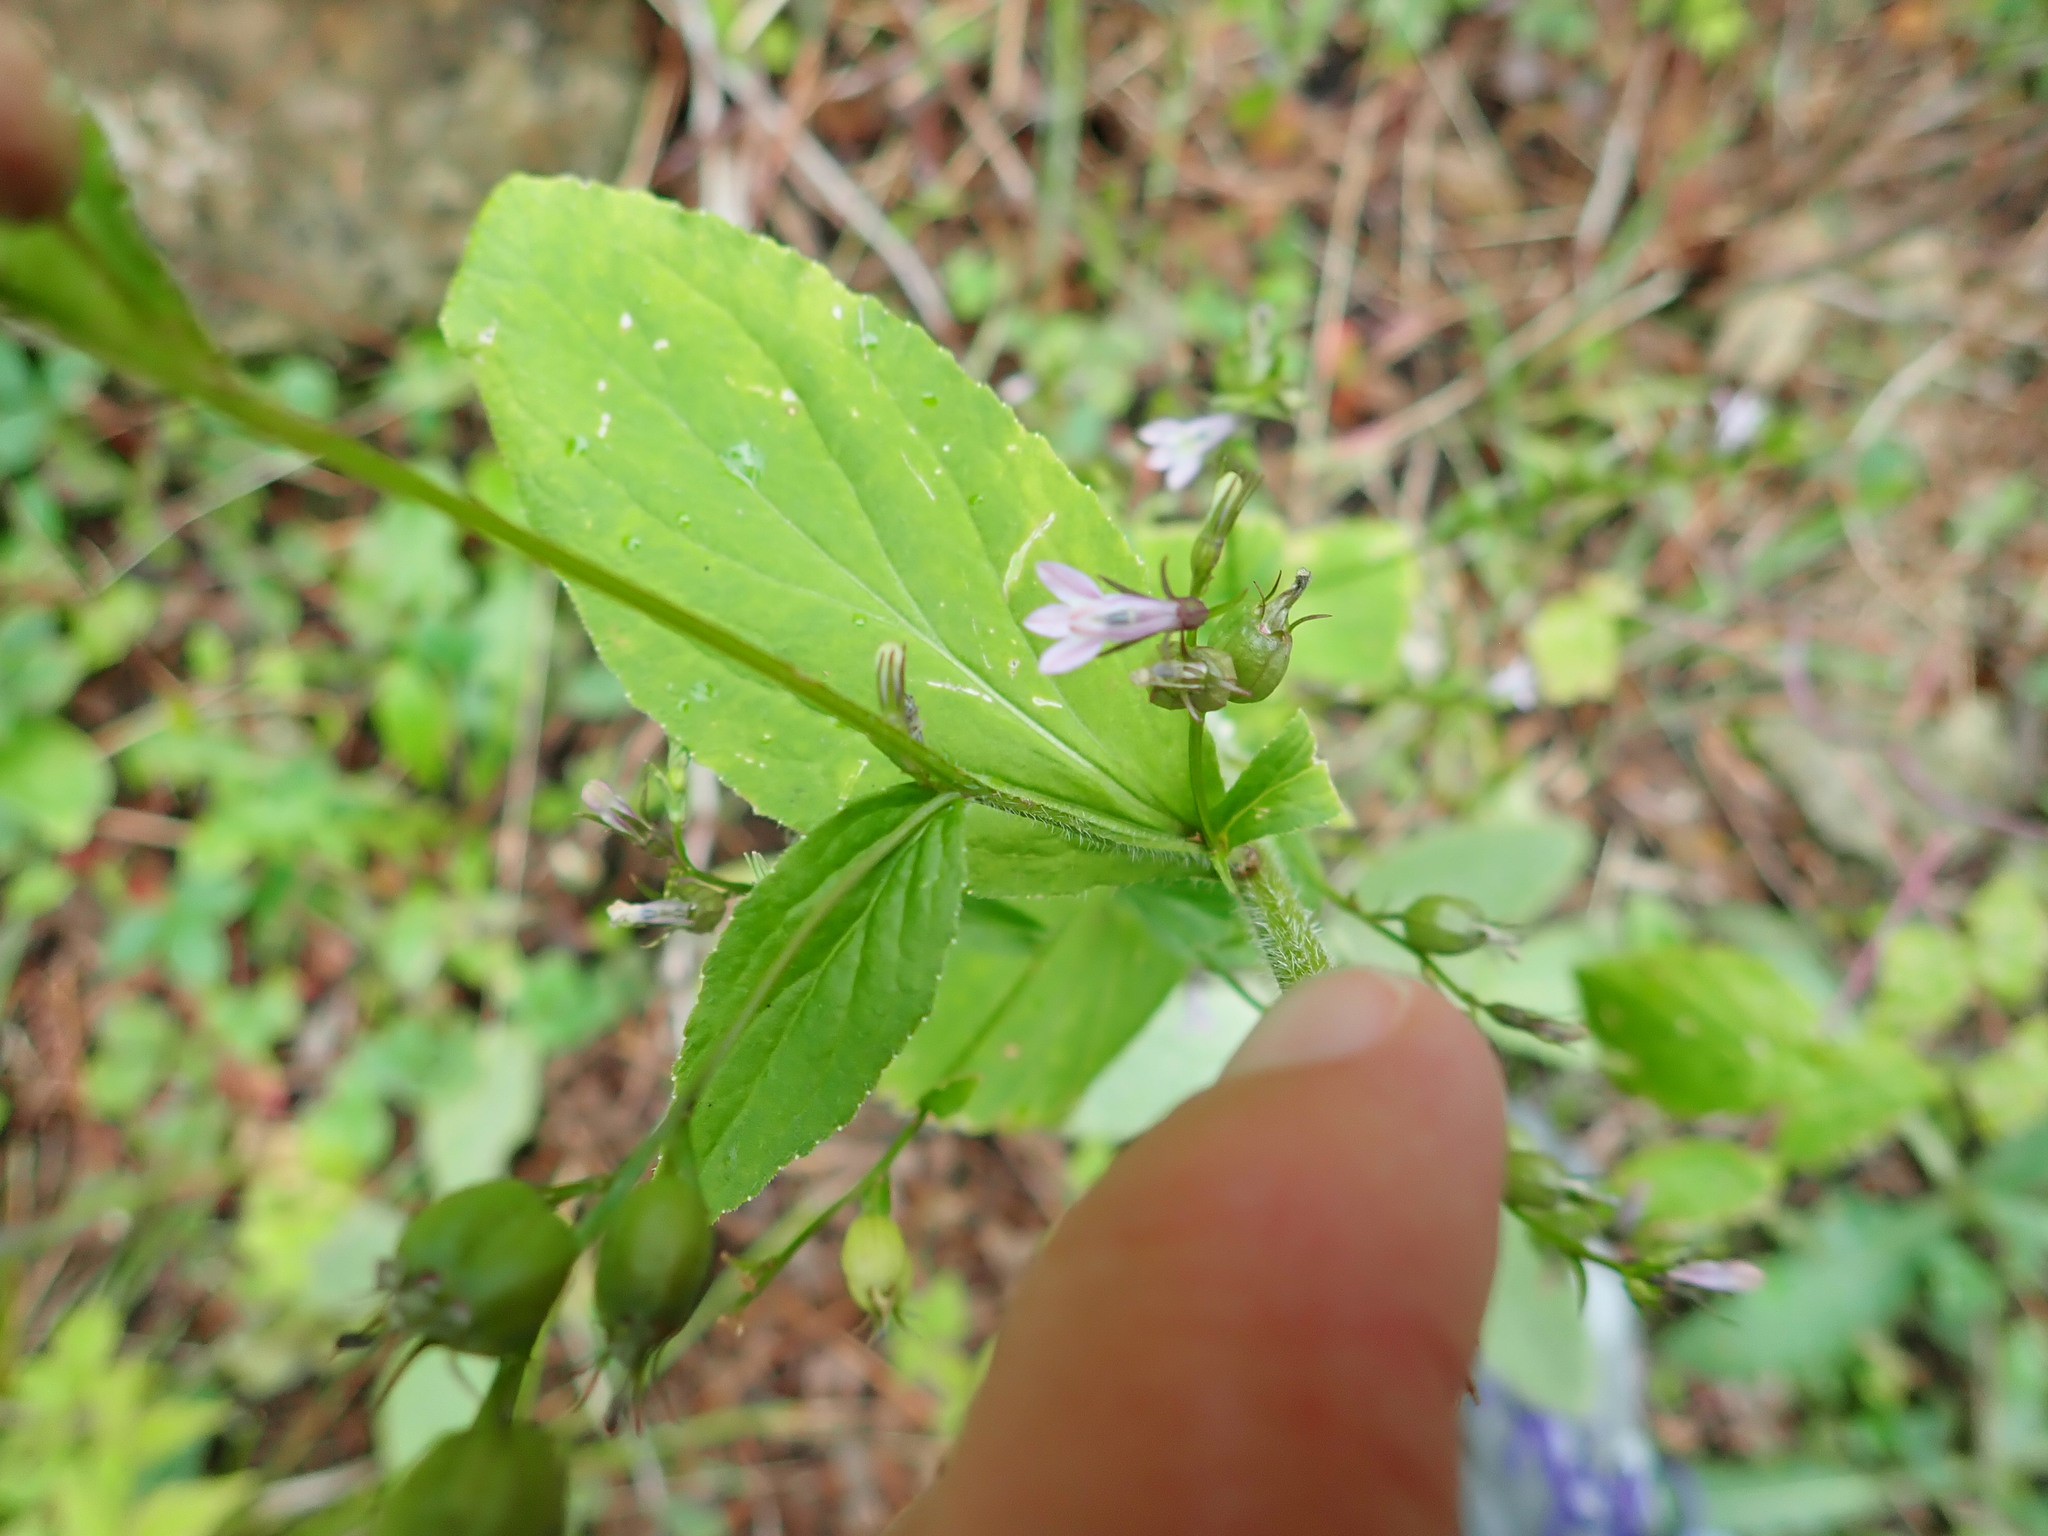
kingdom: Plantae
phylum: Tracheophyta
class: Magnoliopsida
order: Asterales
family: Campanulaceae
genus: Lobelia
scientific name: Lobelia inflata
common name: Indian tobacco
